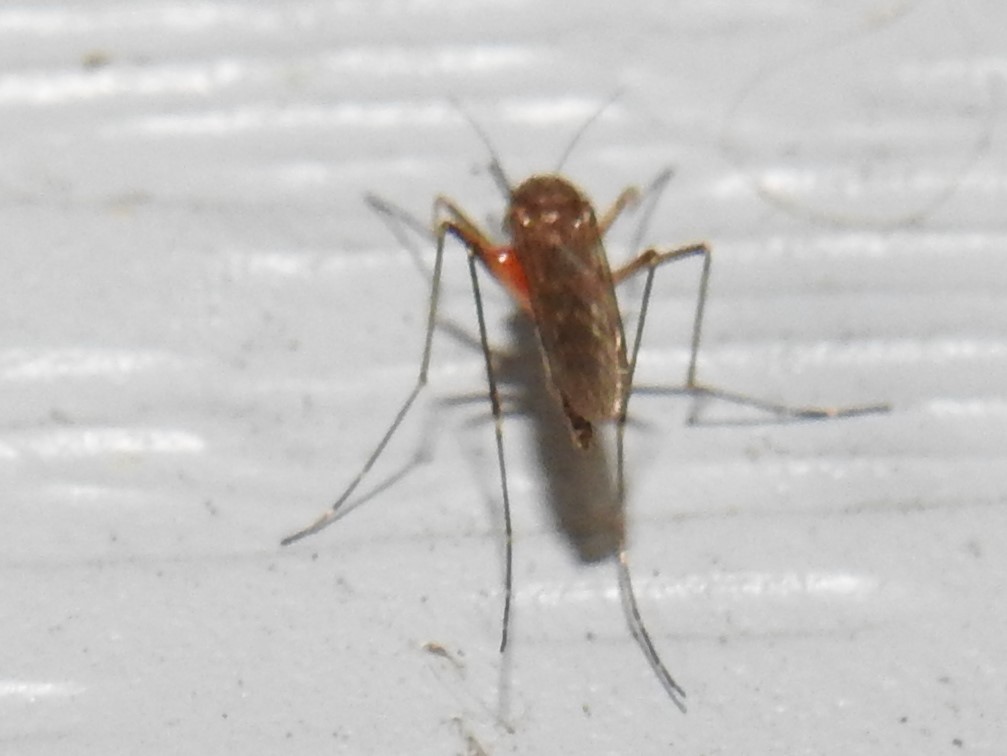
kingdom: Animalia
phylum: Arthropoda
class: Insecta
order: Diptera
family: Culicidae
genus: Aedes
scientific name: Aedes vexans
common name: Inland floodwater mosquito
